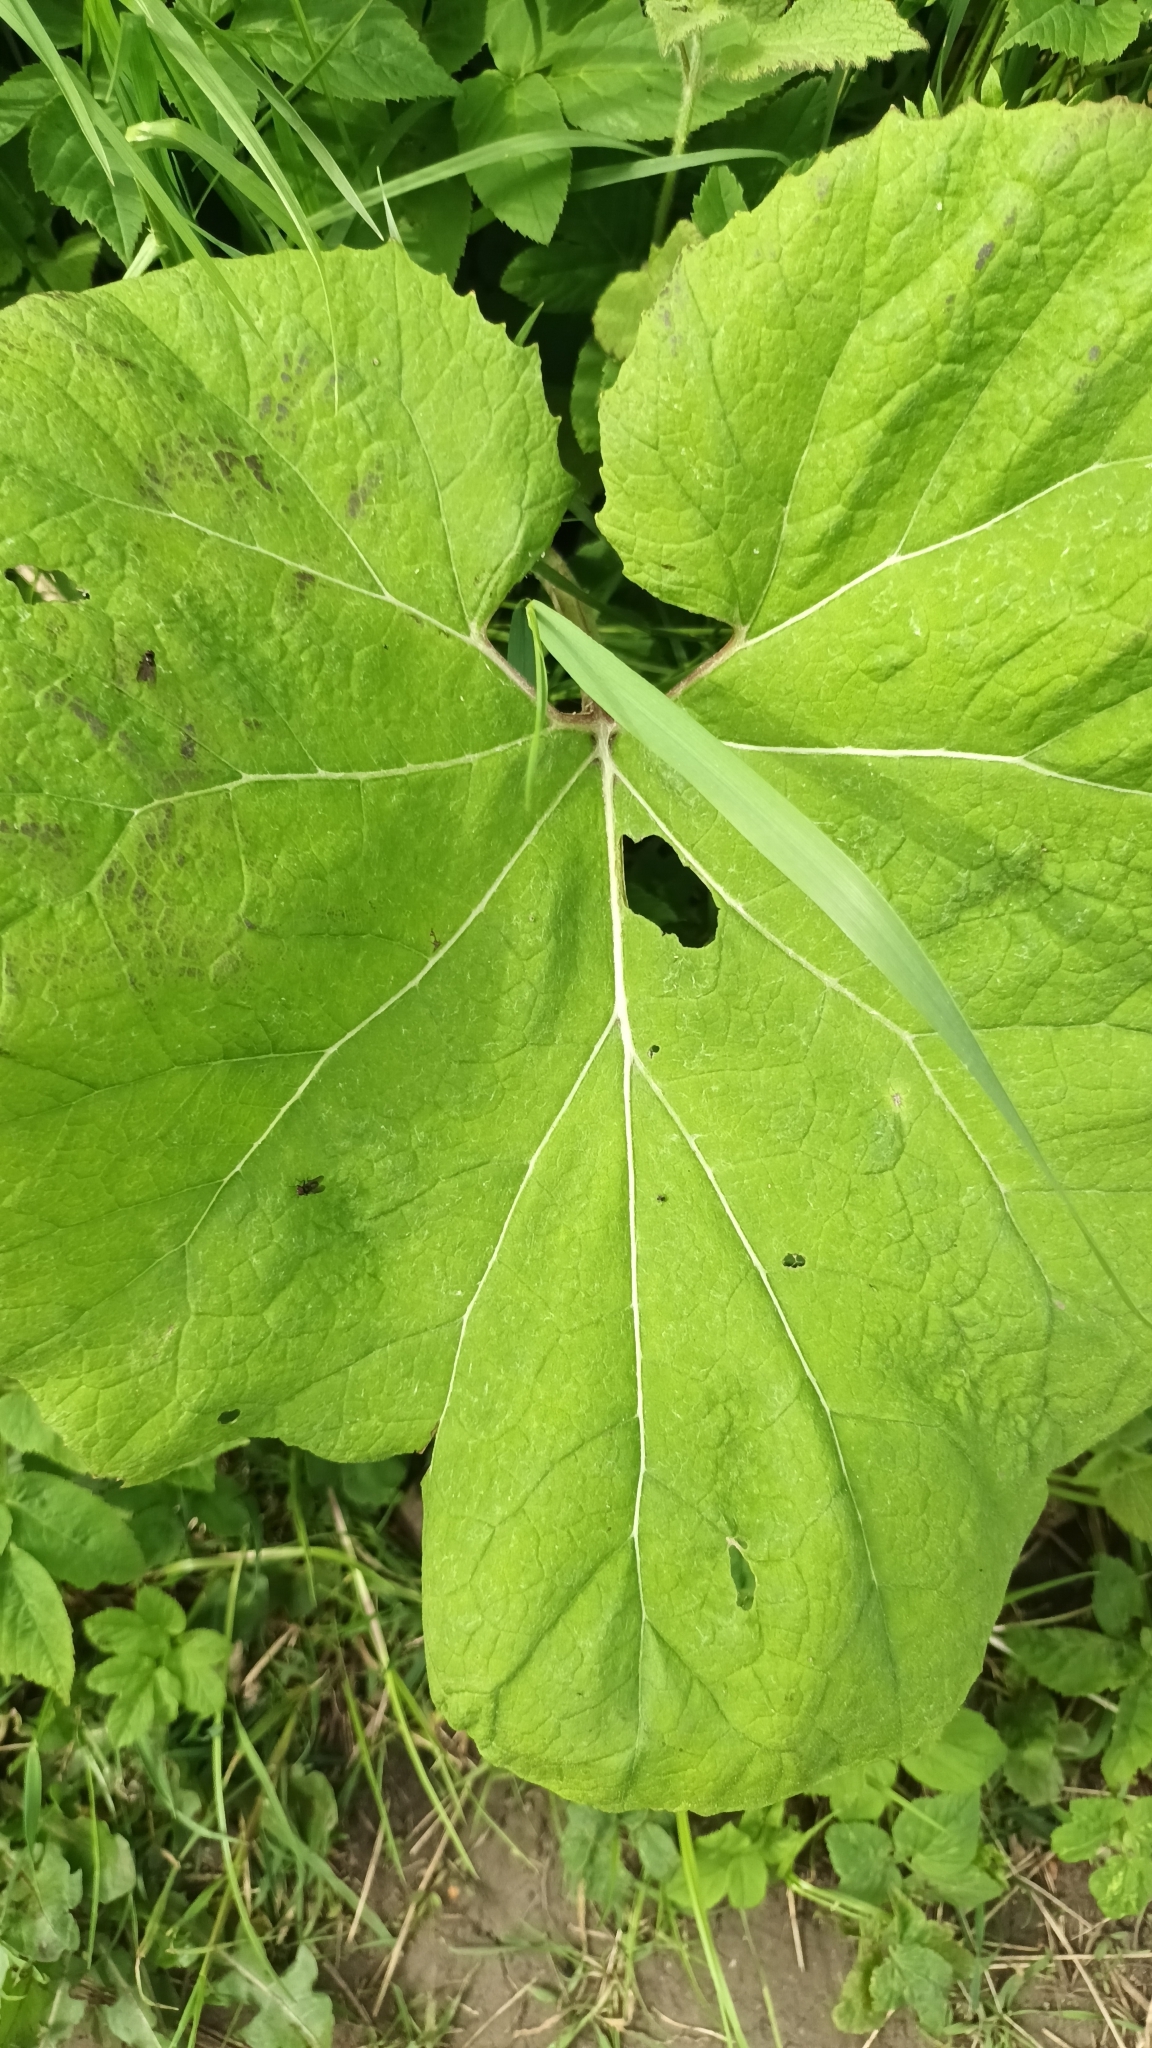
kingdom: Plantae
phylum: Tracheophyta
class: Magnoliopsida
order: Asterales
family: Asteraceae
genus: Petasites
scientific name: Petasites hybridus
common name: Butterbur
